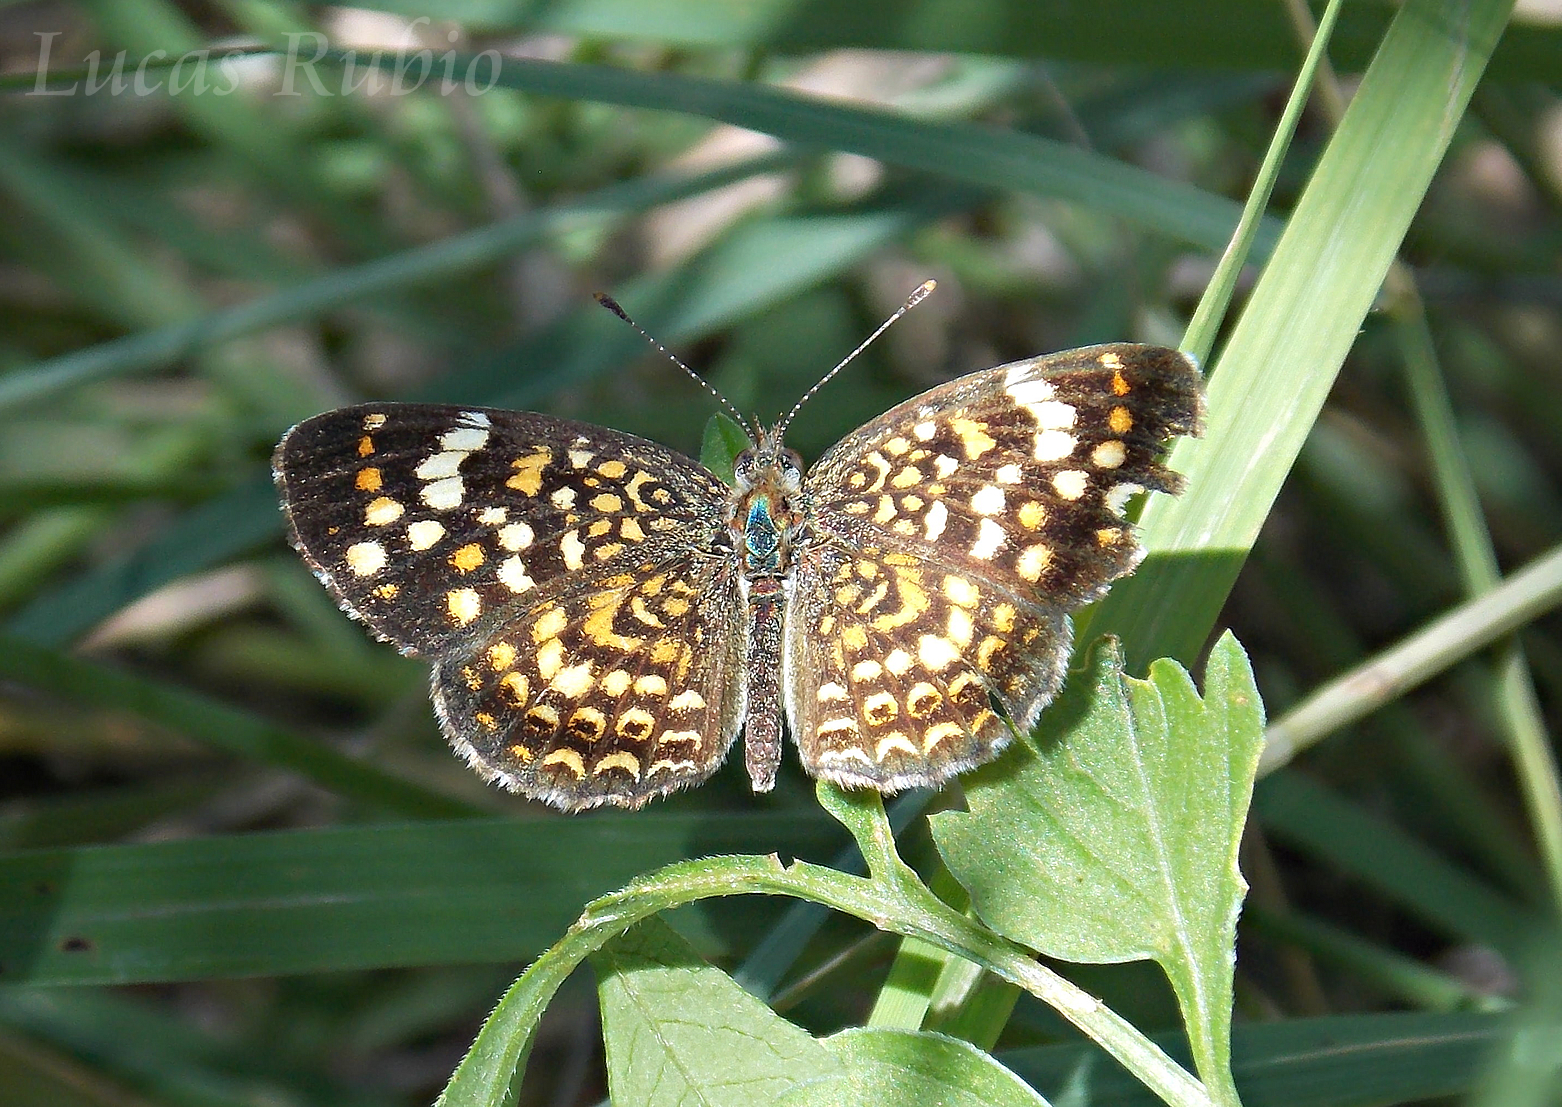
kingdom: Animalia
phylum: Arthropoda
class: Insecta
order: Lepidoptera
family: Nymphalidae
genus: Phystis
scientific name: Phystis simois
